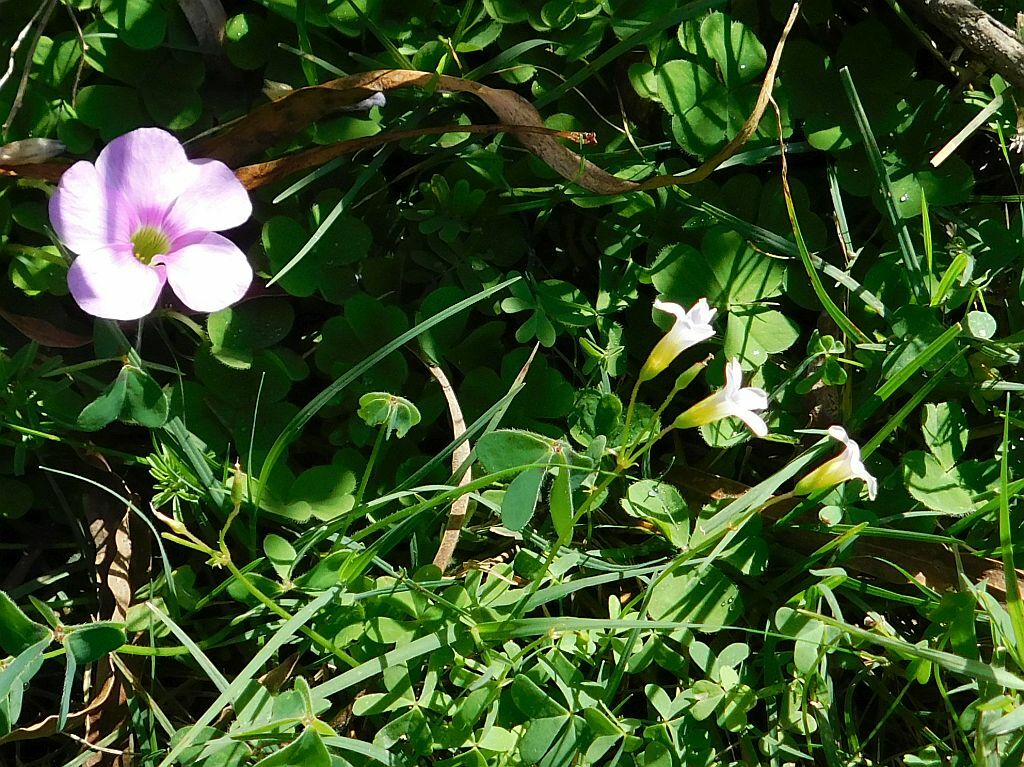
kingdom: Plantae
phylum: Tracheophyta
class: Magnoliopsida
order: Oxalidales
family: Oxalidaceae
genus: Oxalis
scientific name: Oxalis caprina
